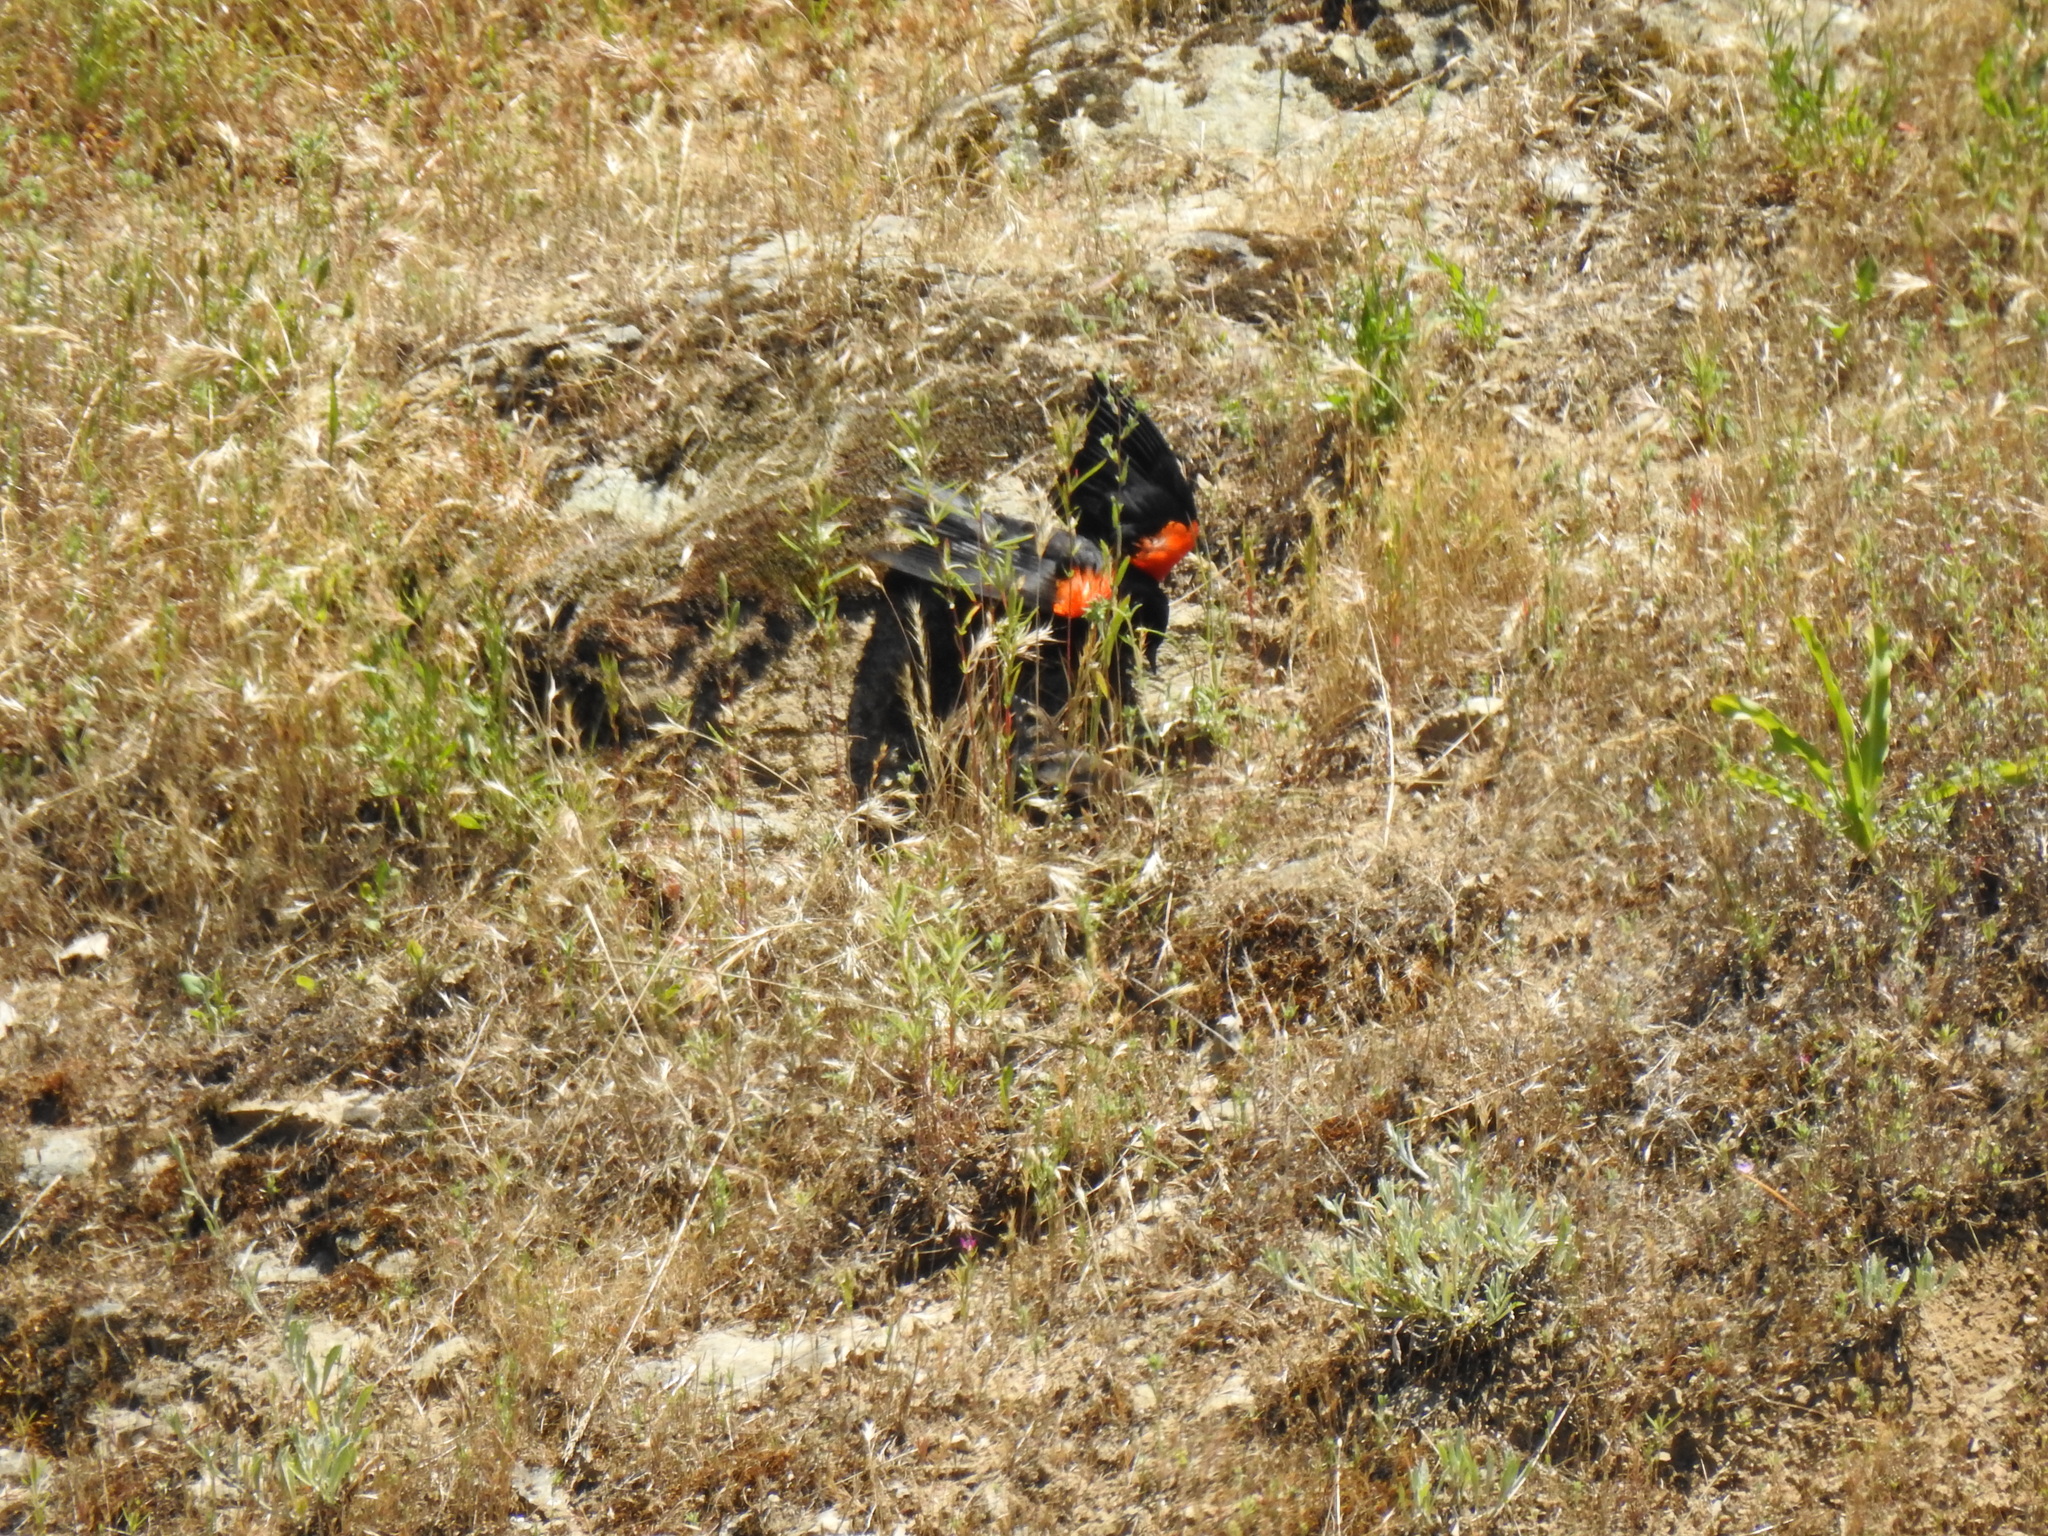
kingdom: Animalia
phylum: Chordata
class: Aves
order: Passeriformes
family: Icteridae
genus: Agelaius
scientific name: Agelaius phoeniceus
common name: Red-winged blackbird
